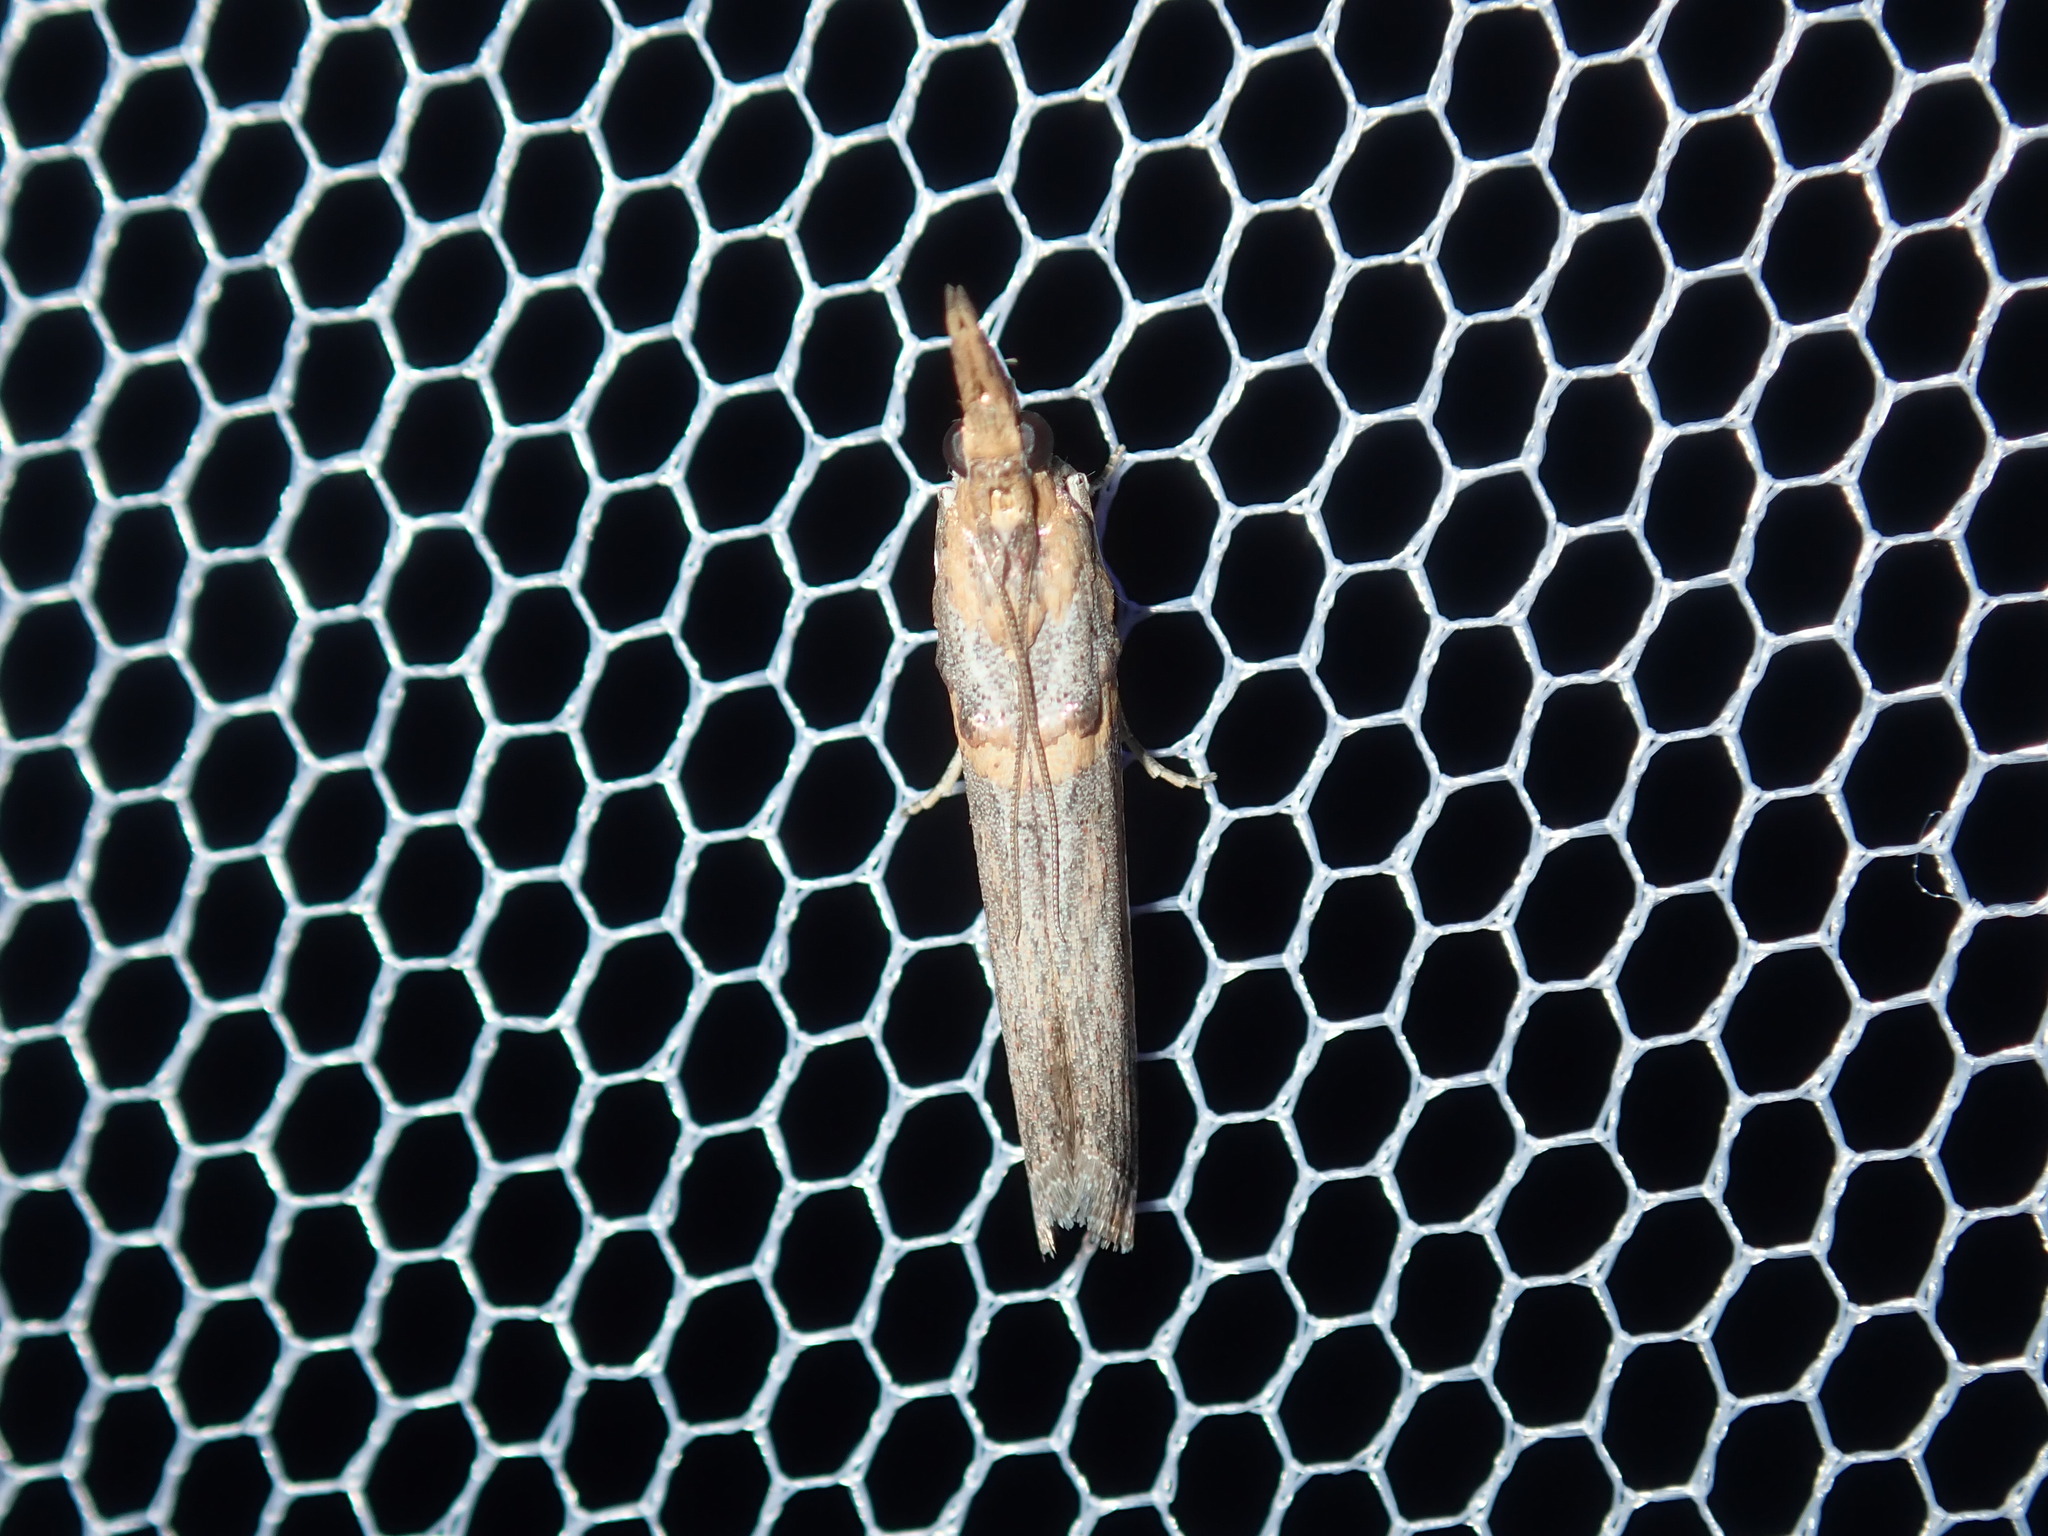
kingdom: Animalia
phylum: Arthropoda
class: Insecta
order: Lepidoptera
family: Pyralidae
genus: Etiella
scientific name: Etiella behrii
